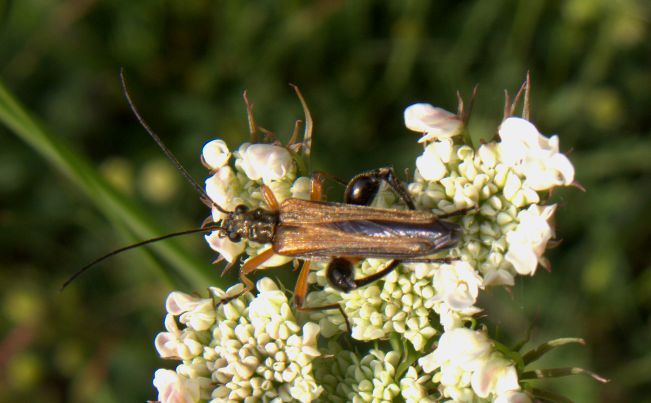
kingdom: Animalia
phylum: Arthropoda
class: Insecta
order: Coleoptera
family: Oedemeridae
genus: Oedemera
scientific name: Oedemera podagrariae
